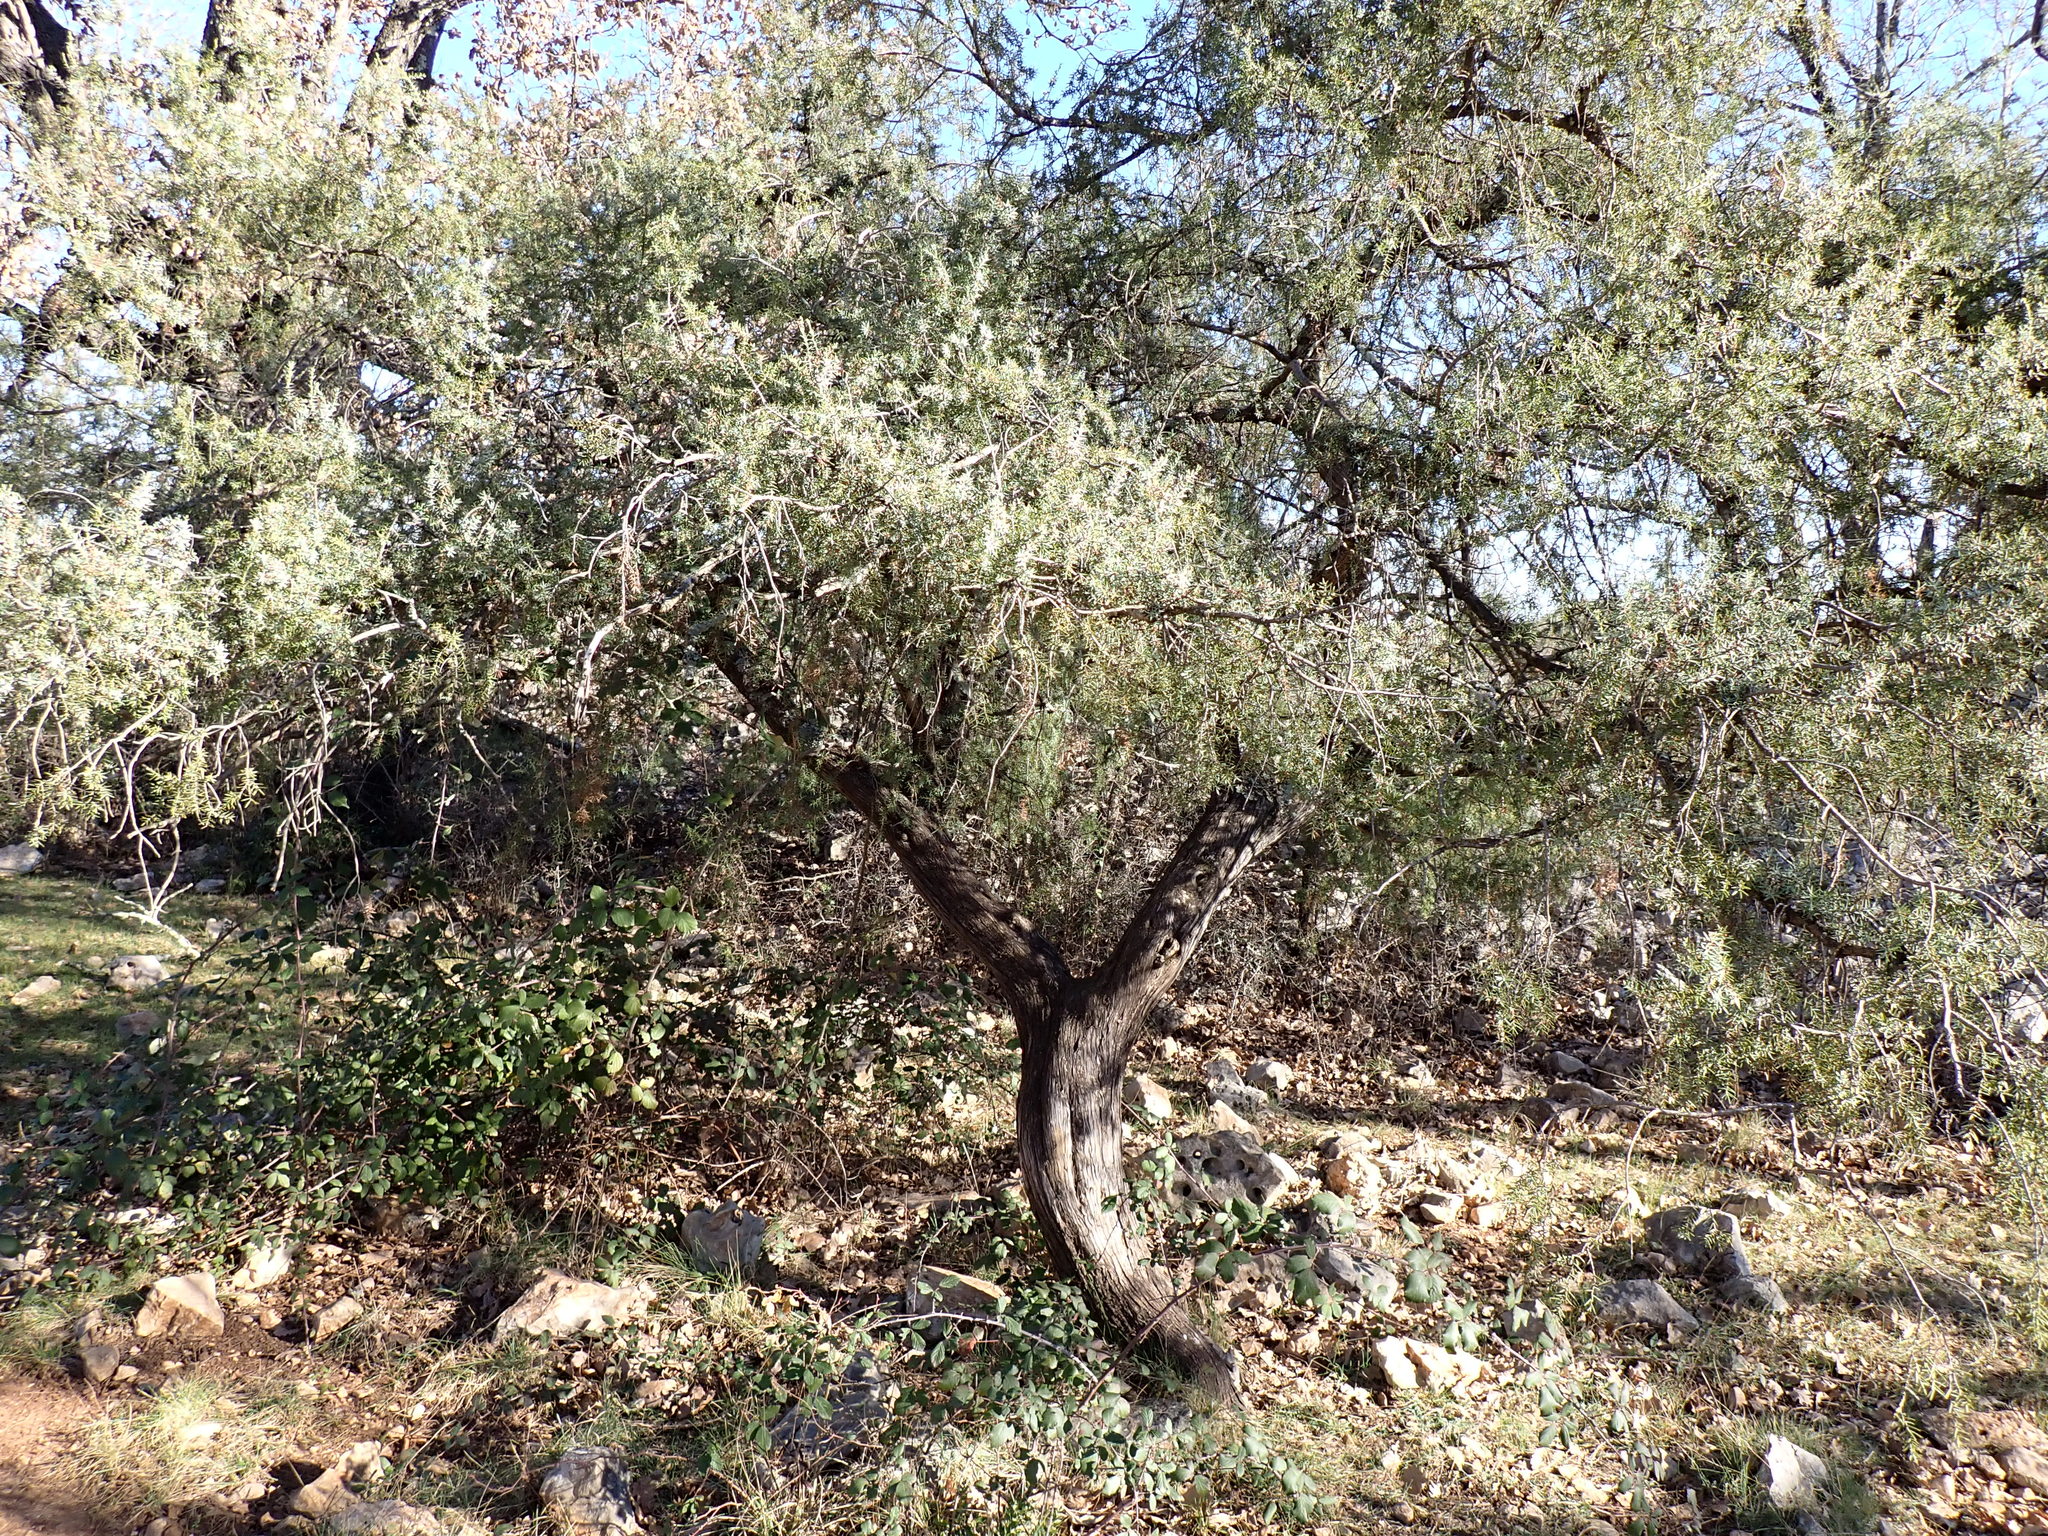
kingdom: Plantae
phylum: Tracheophyta
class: Pinopsida
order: Pinales
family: Cupressaceae
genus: Juniperus
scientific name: Juniperus oxycedrus
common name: Prickly juniper
